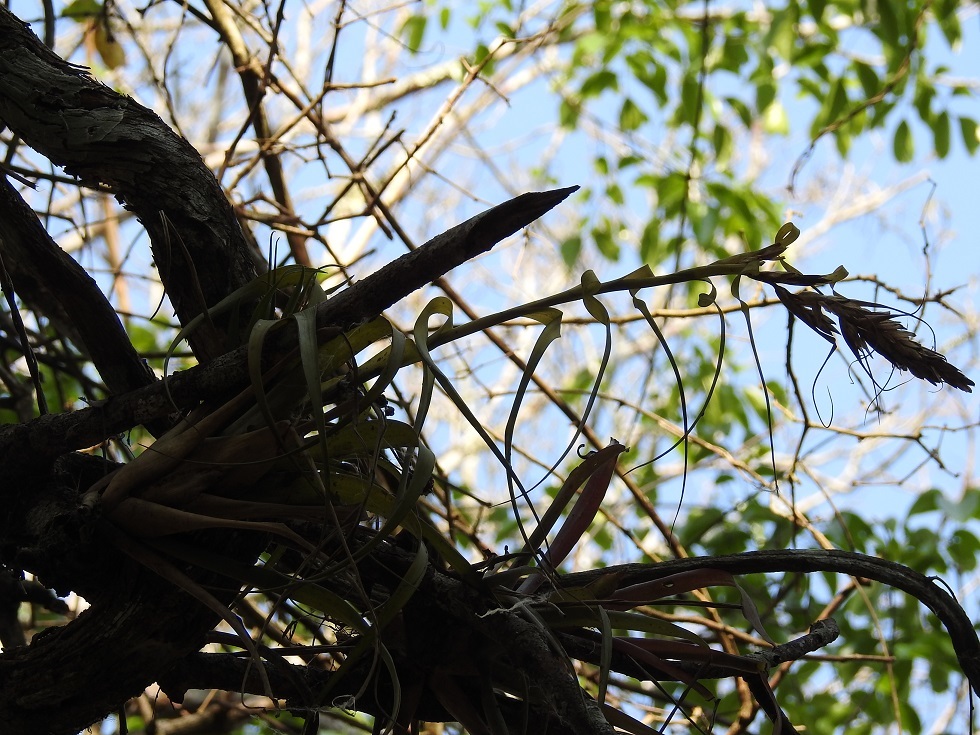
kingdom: Plantae
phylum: Tracheophyta
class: Liliopsida
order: Poales
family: Bromeliaceae
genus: Tillandsia
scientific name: Tillandsia polystachia
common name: Airplant
